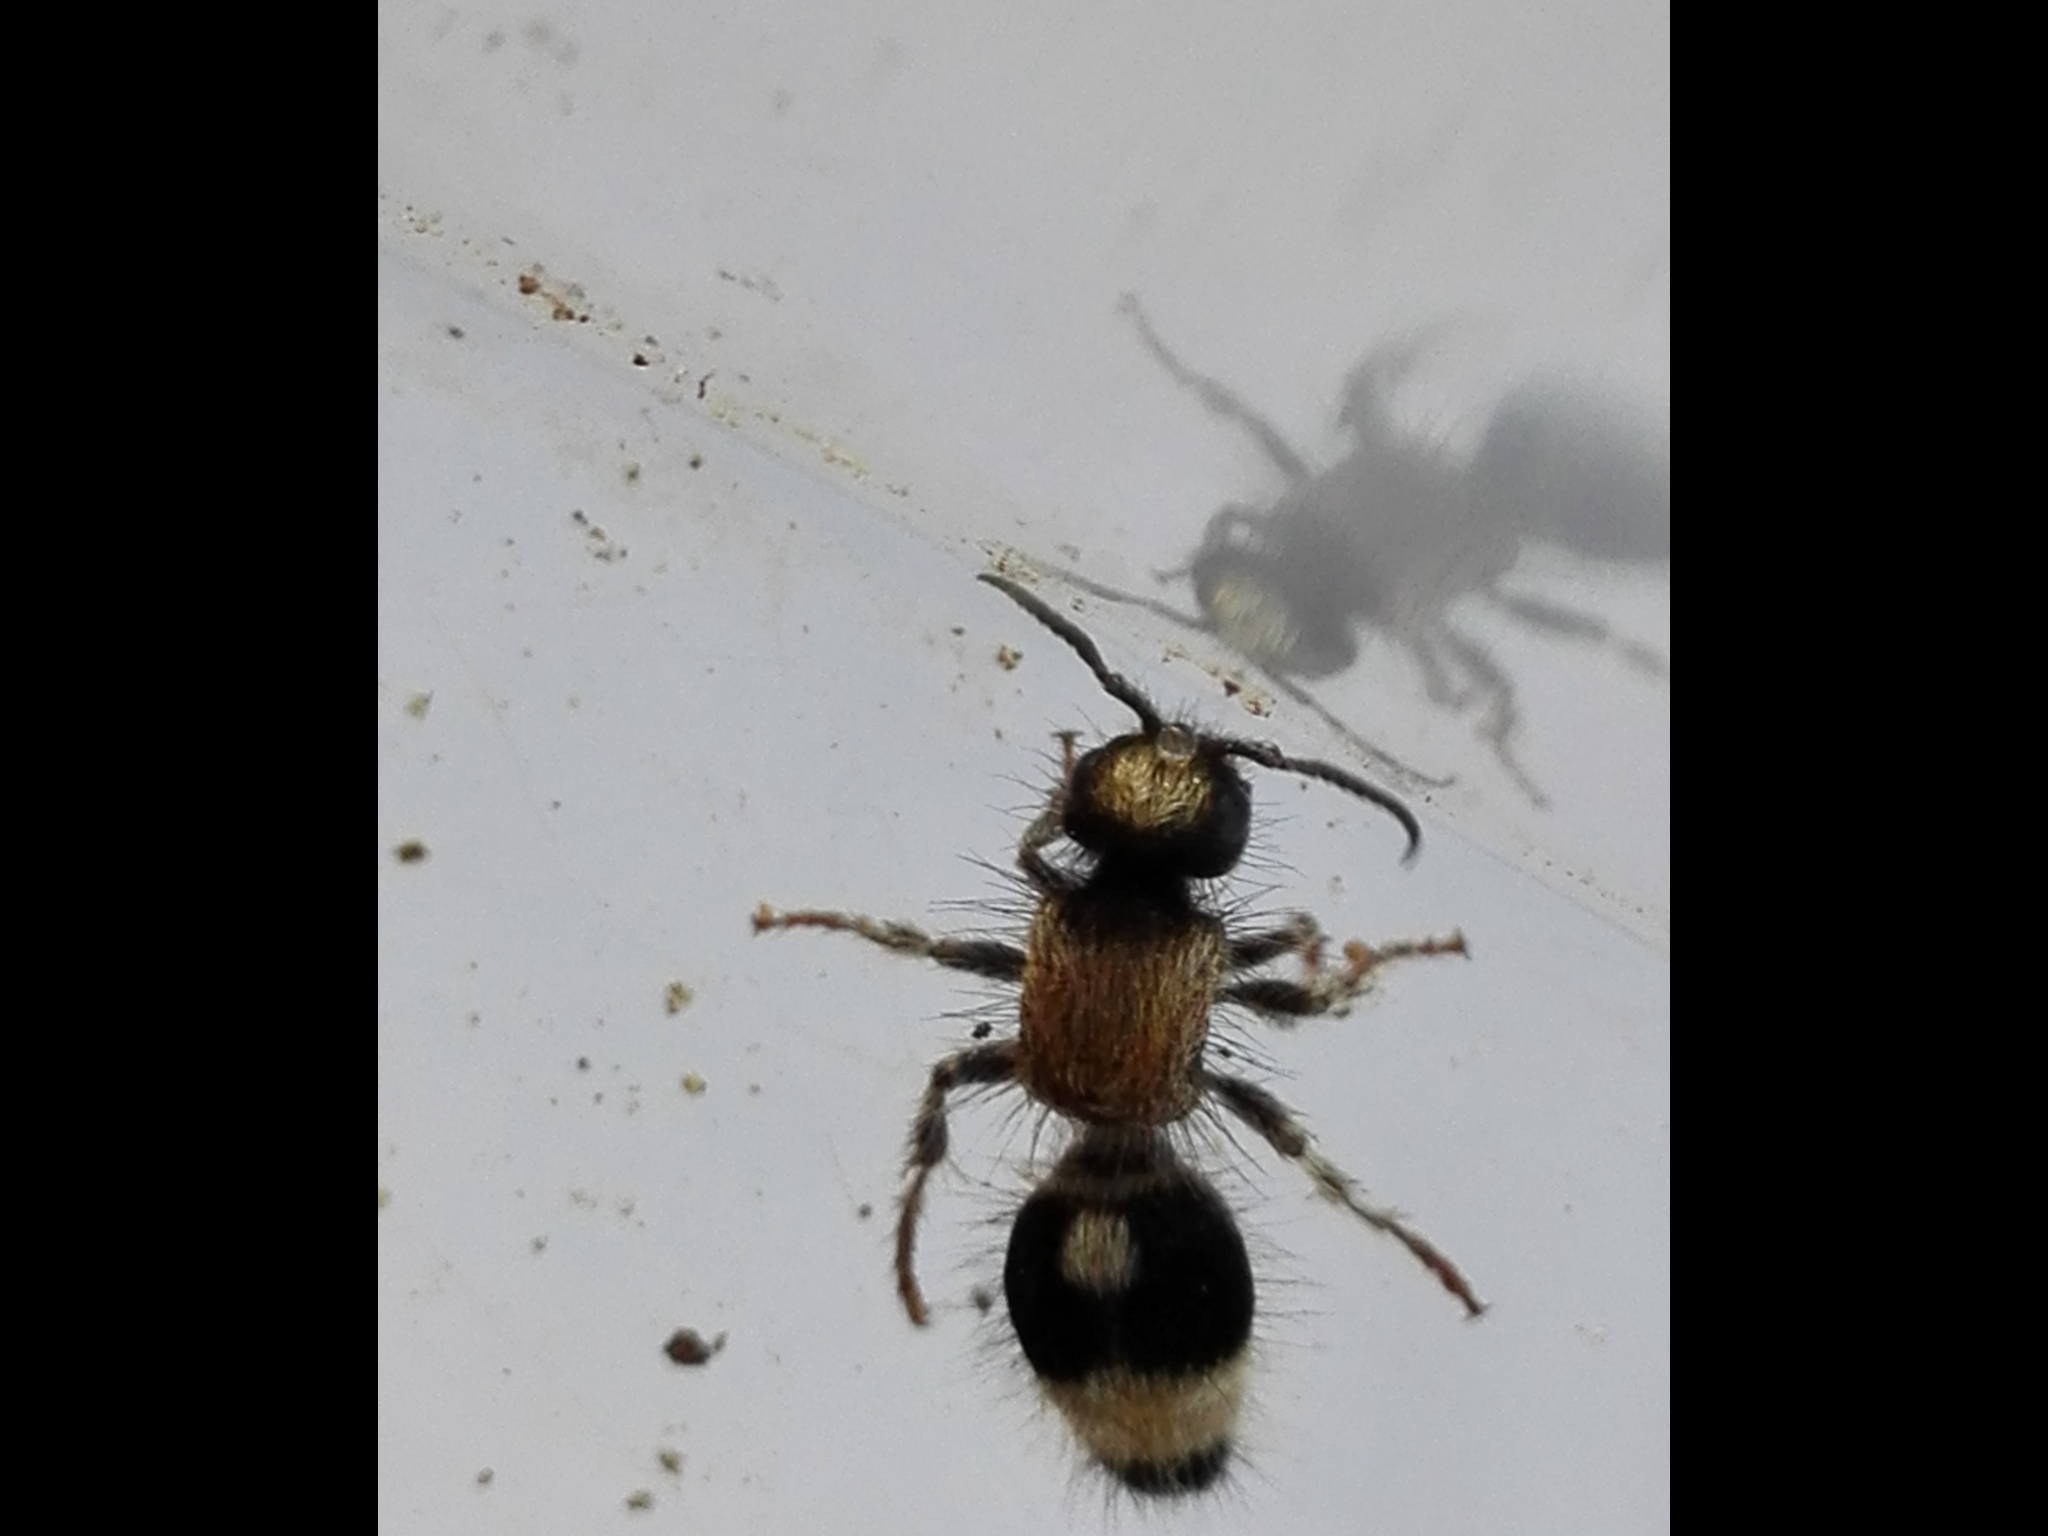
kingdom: Animalia
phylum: Arthropoda
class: Insecta
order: Hymenoptera
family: Mutillidae
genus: Nemka
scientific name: Nemka viduata
